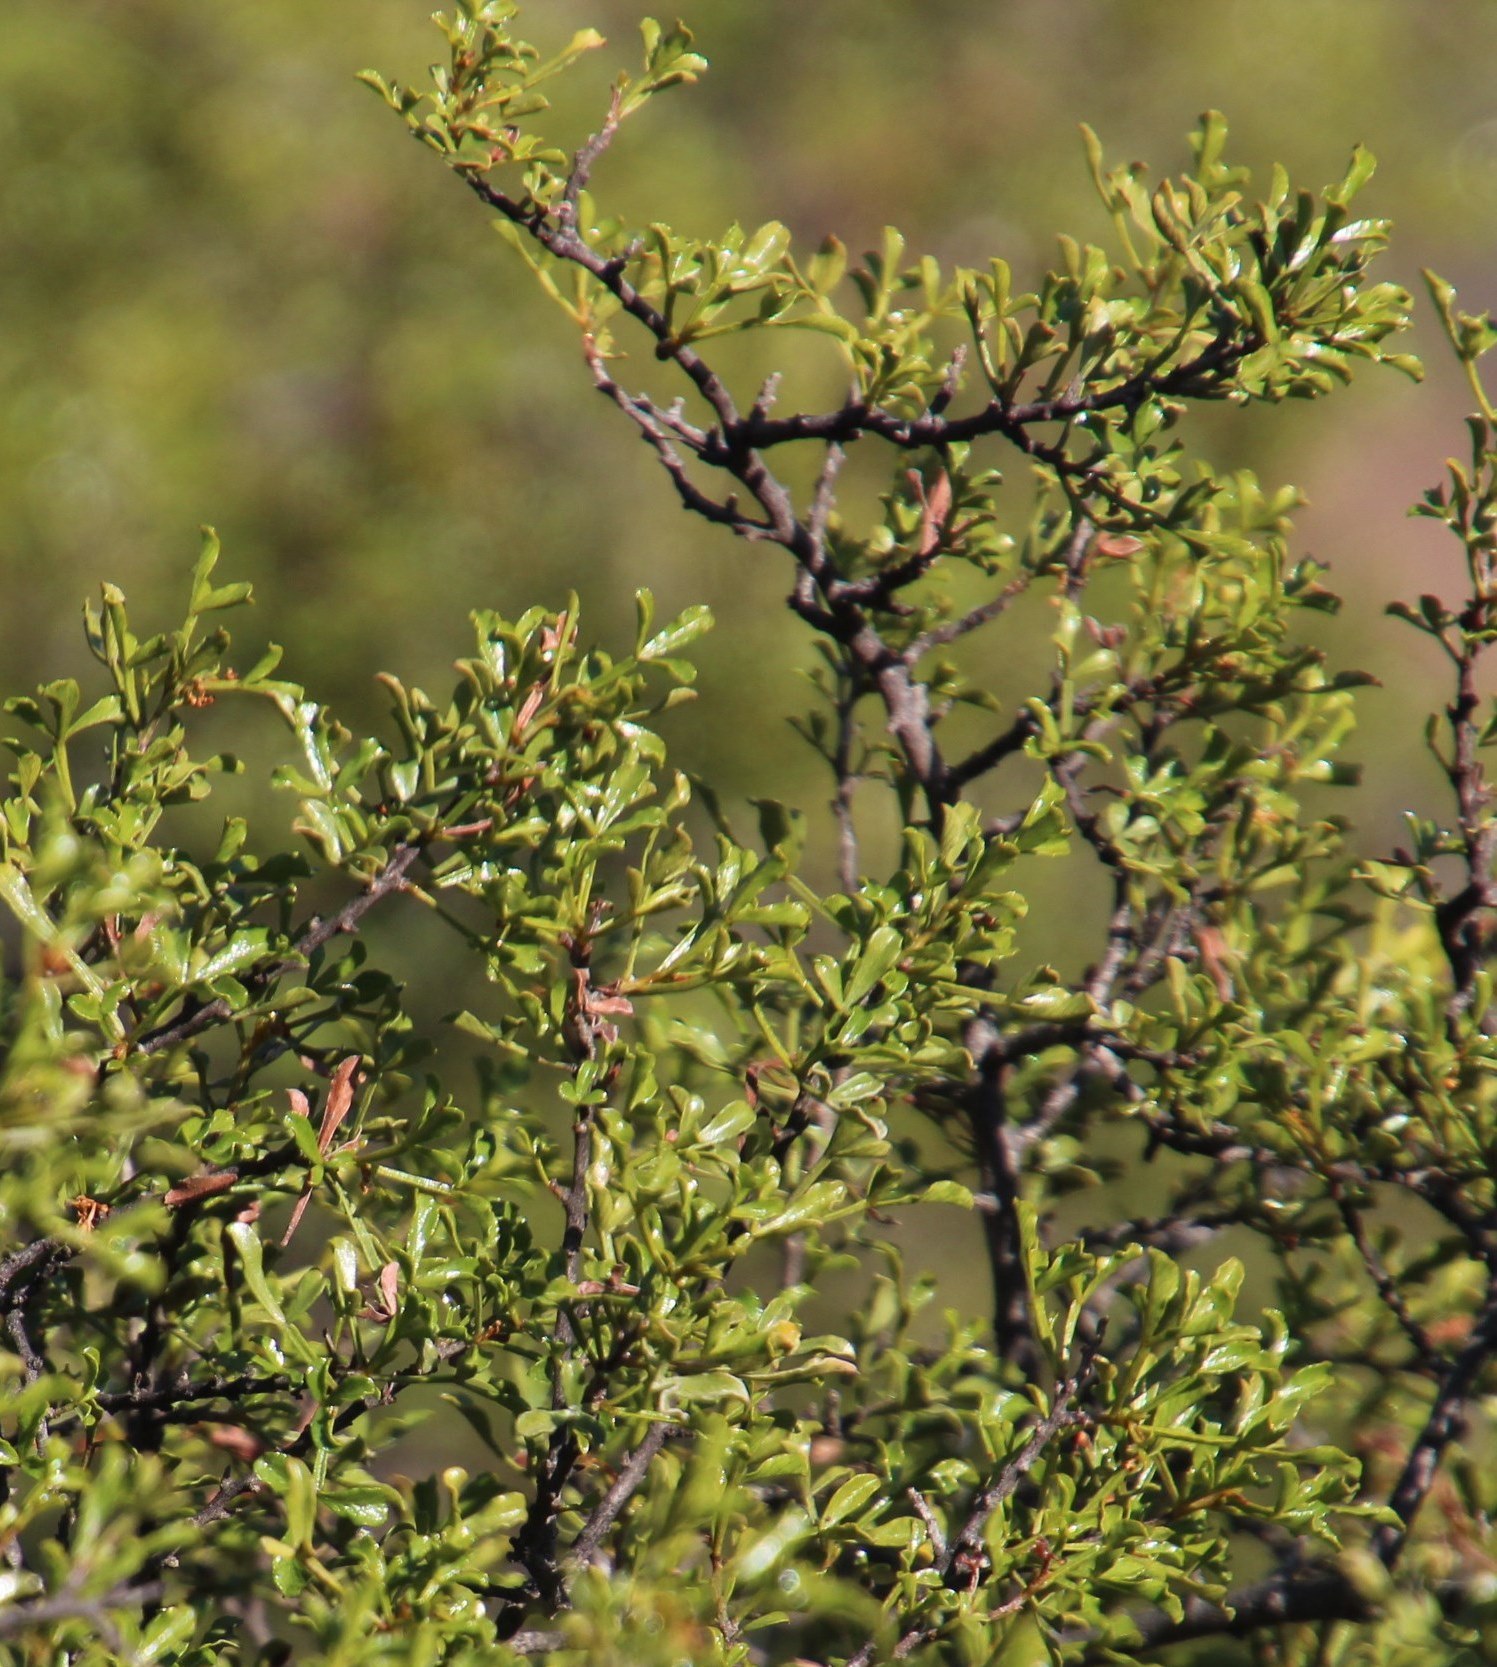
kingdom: Plantae
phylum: Tracheophyta
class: Magnoliopsida
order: Sapindales
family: Anacardiaceae
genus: Searsia
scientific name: Searsia undulata
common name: Namaqua kunibush
